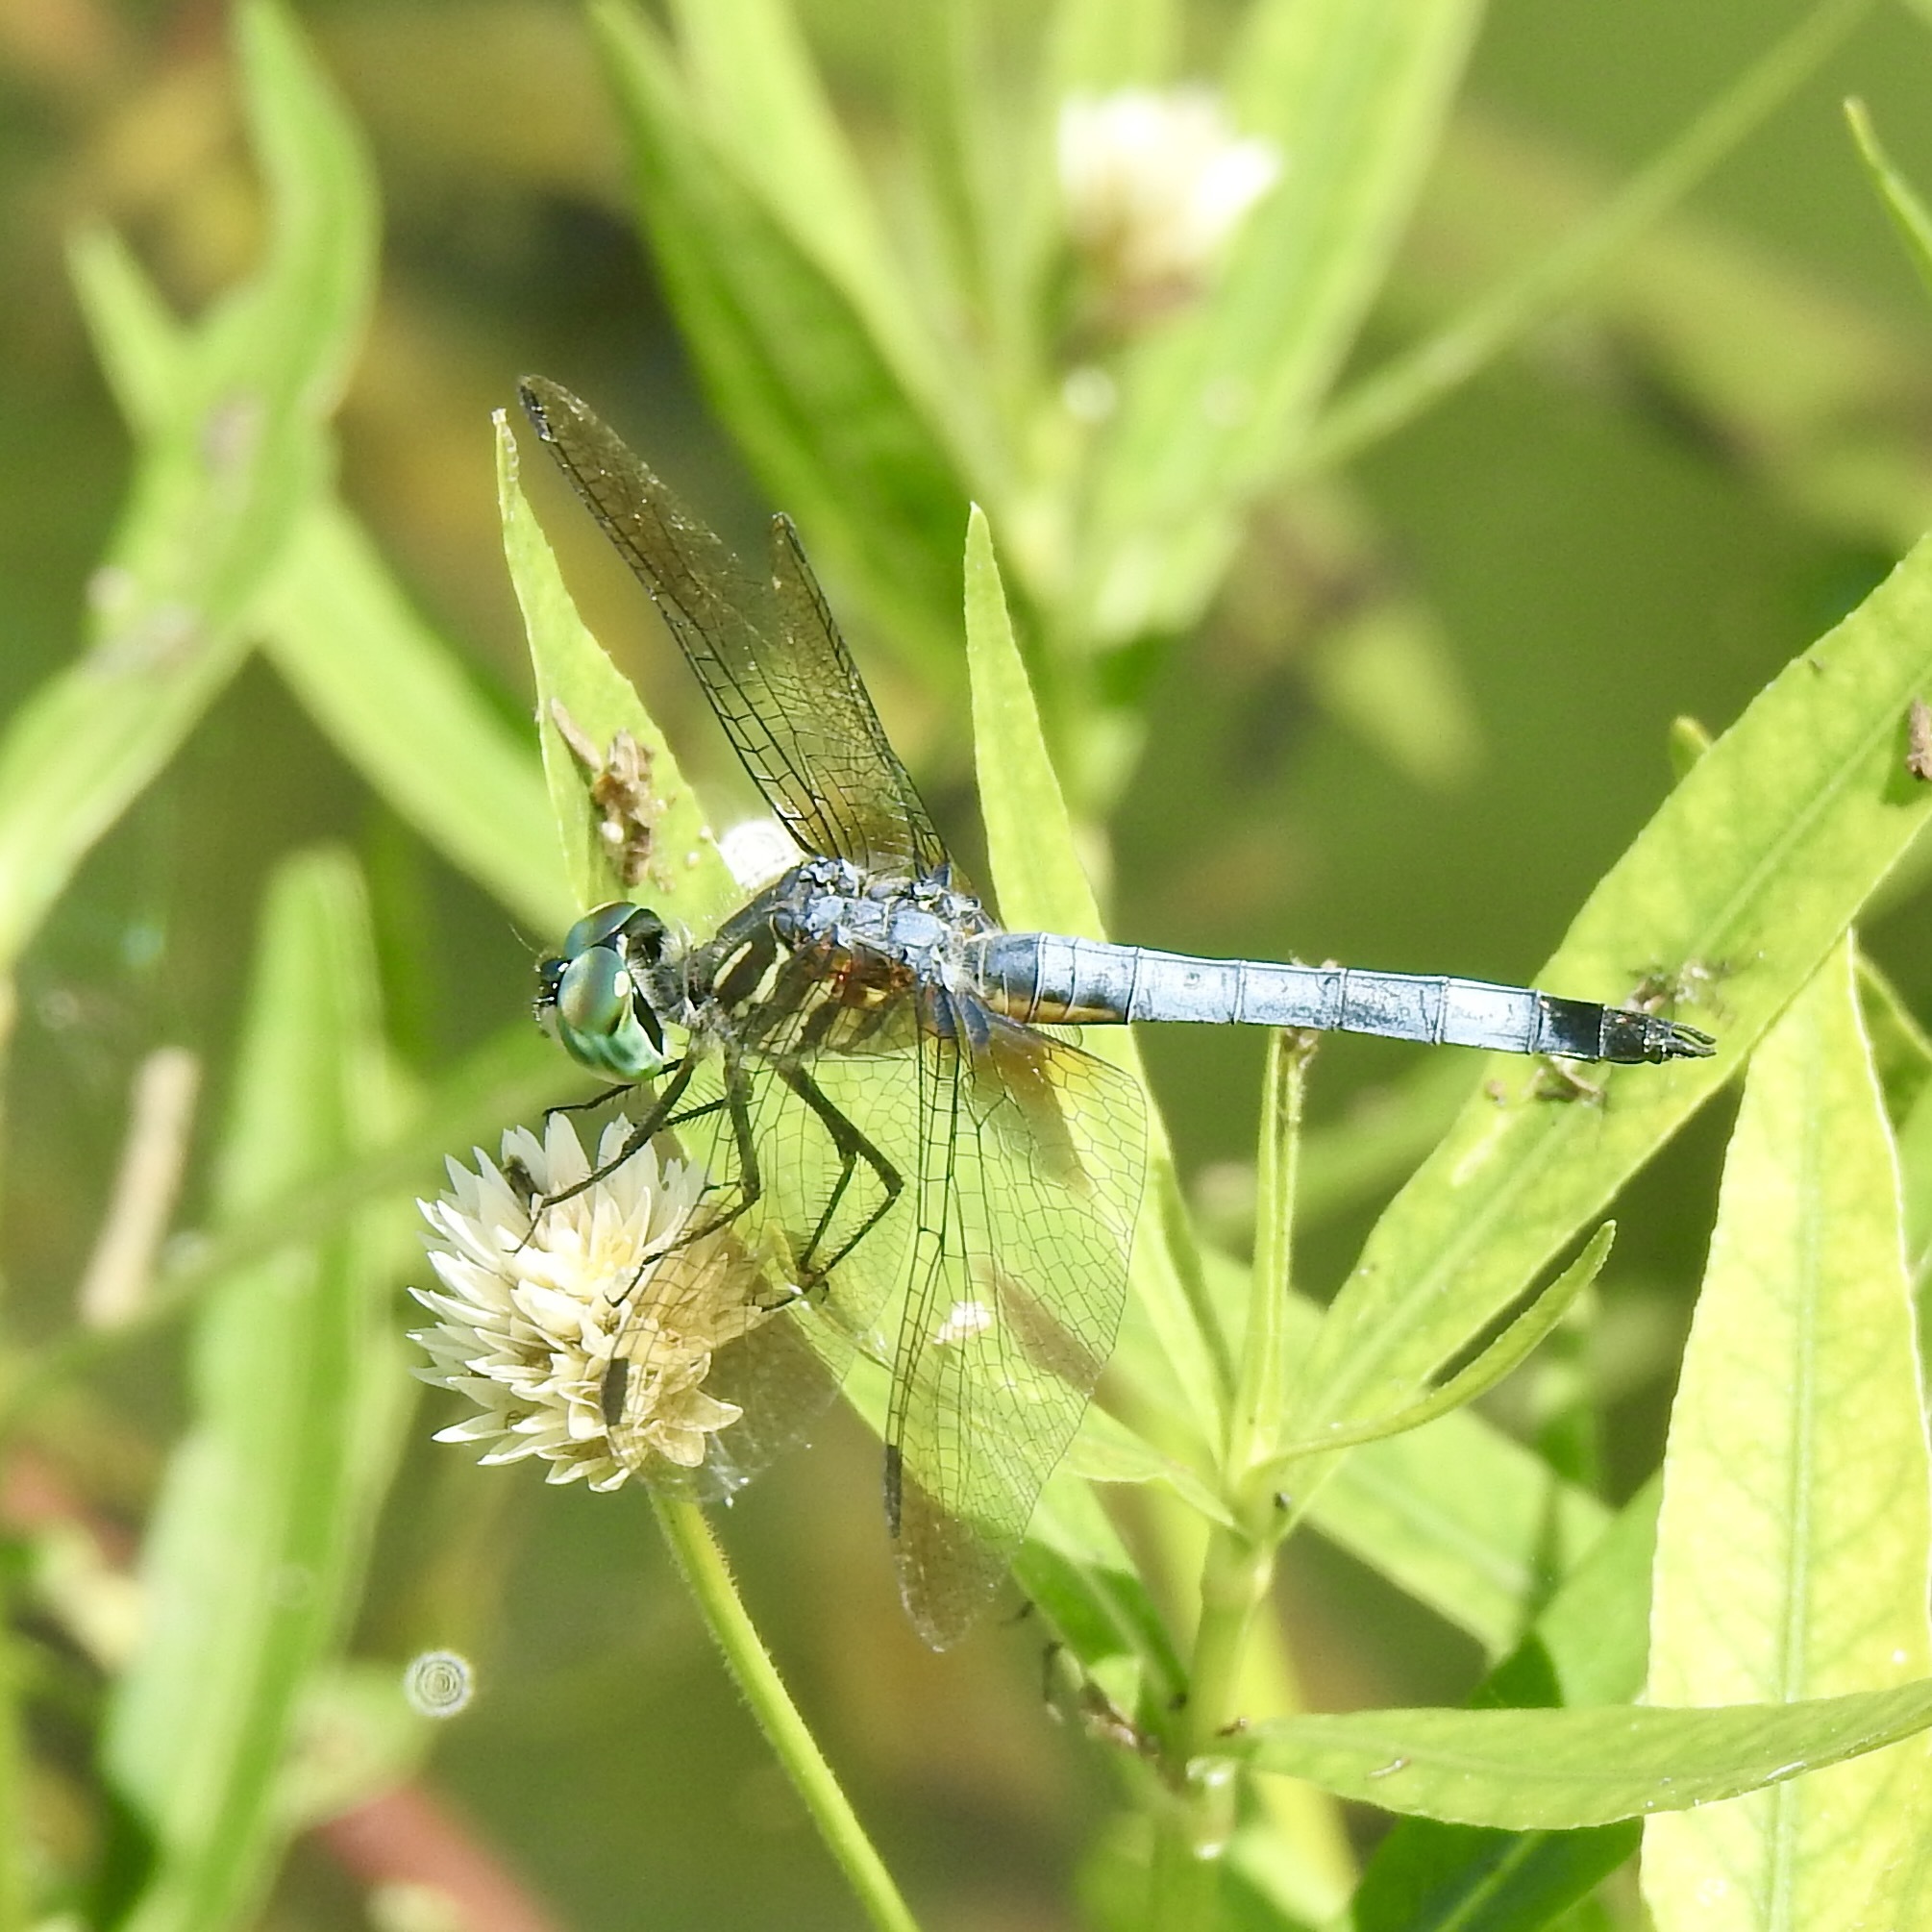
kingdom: Animalia
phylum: Arthropoda
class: Insecta
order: Odonata
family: Libellulidae
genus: Pachydiplax
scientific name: Pachydiplax longipennis
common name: Blue dasher
